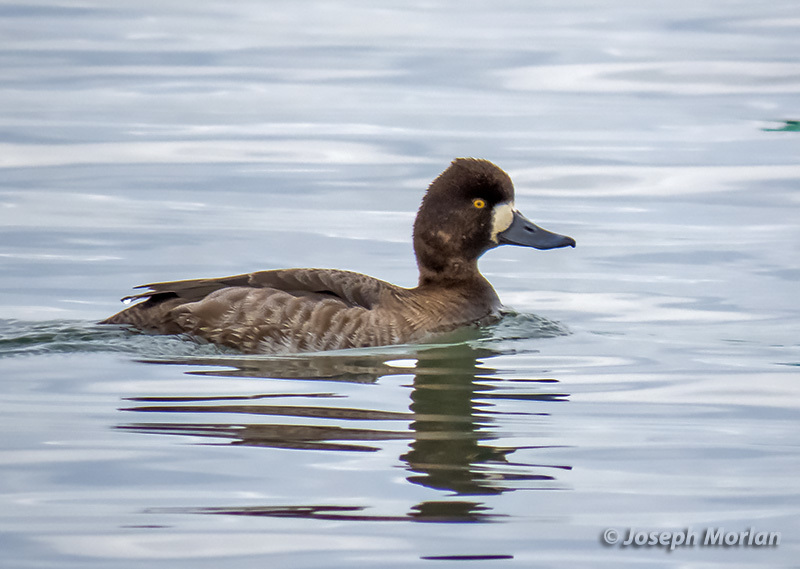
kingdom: Animalia
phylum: Chordata
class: Aves
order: Anseriformes
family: Anatidae
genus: Aythya
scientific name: Aythya affinis
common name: Lesser scaup
